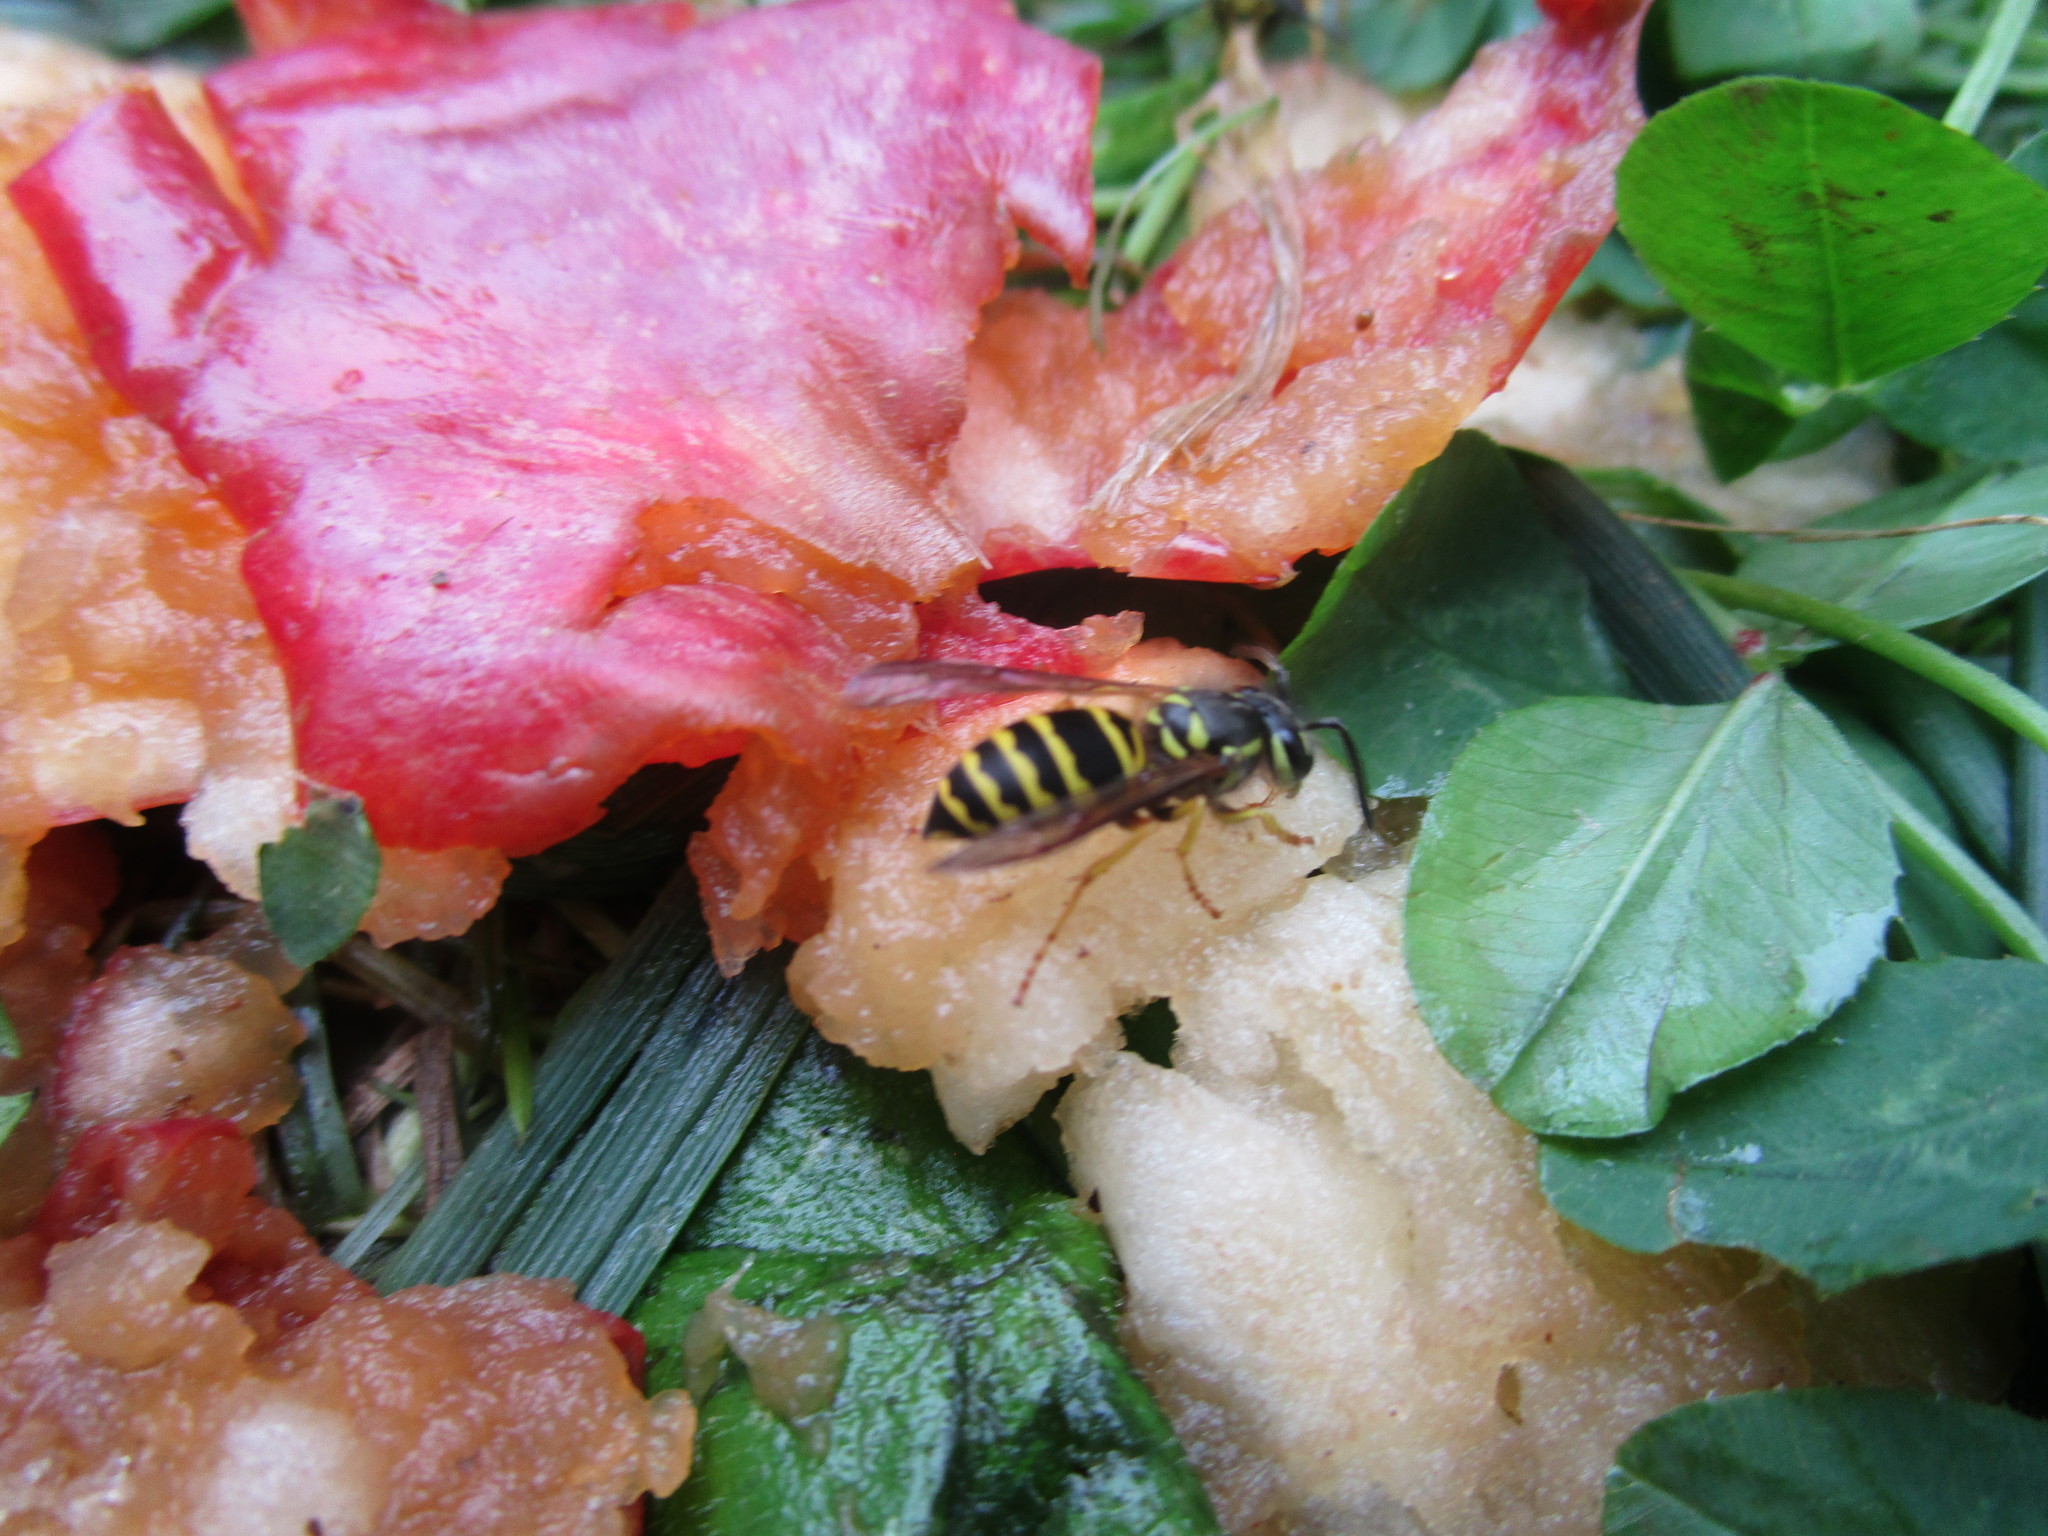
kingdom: Animalia
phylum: Arthropoda
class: Insecta
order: Hymenoptera
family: Vespidae
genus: Vespula
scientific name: Vespula maculifrons
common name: Eastern yellowjacket
